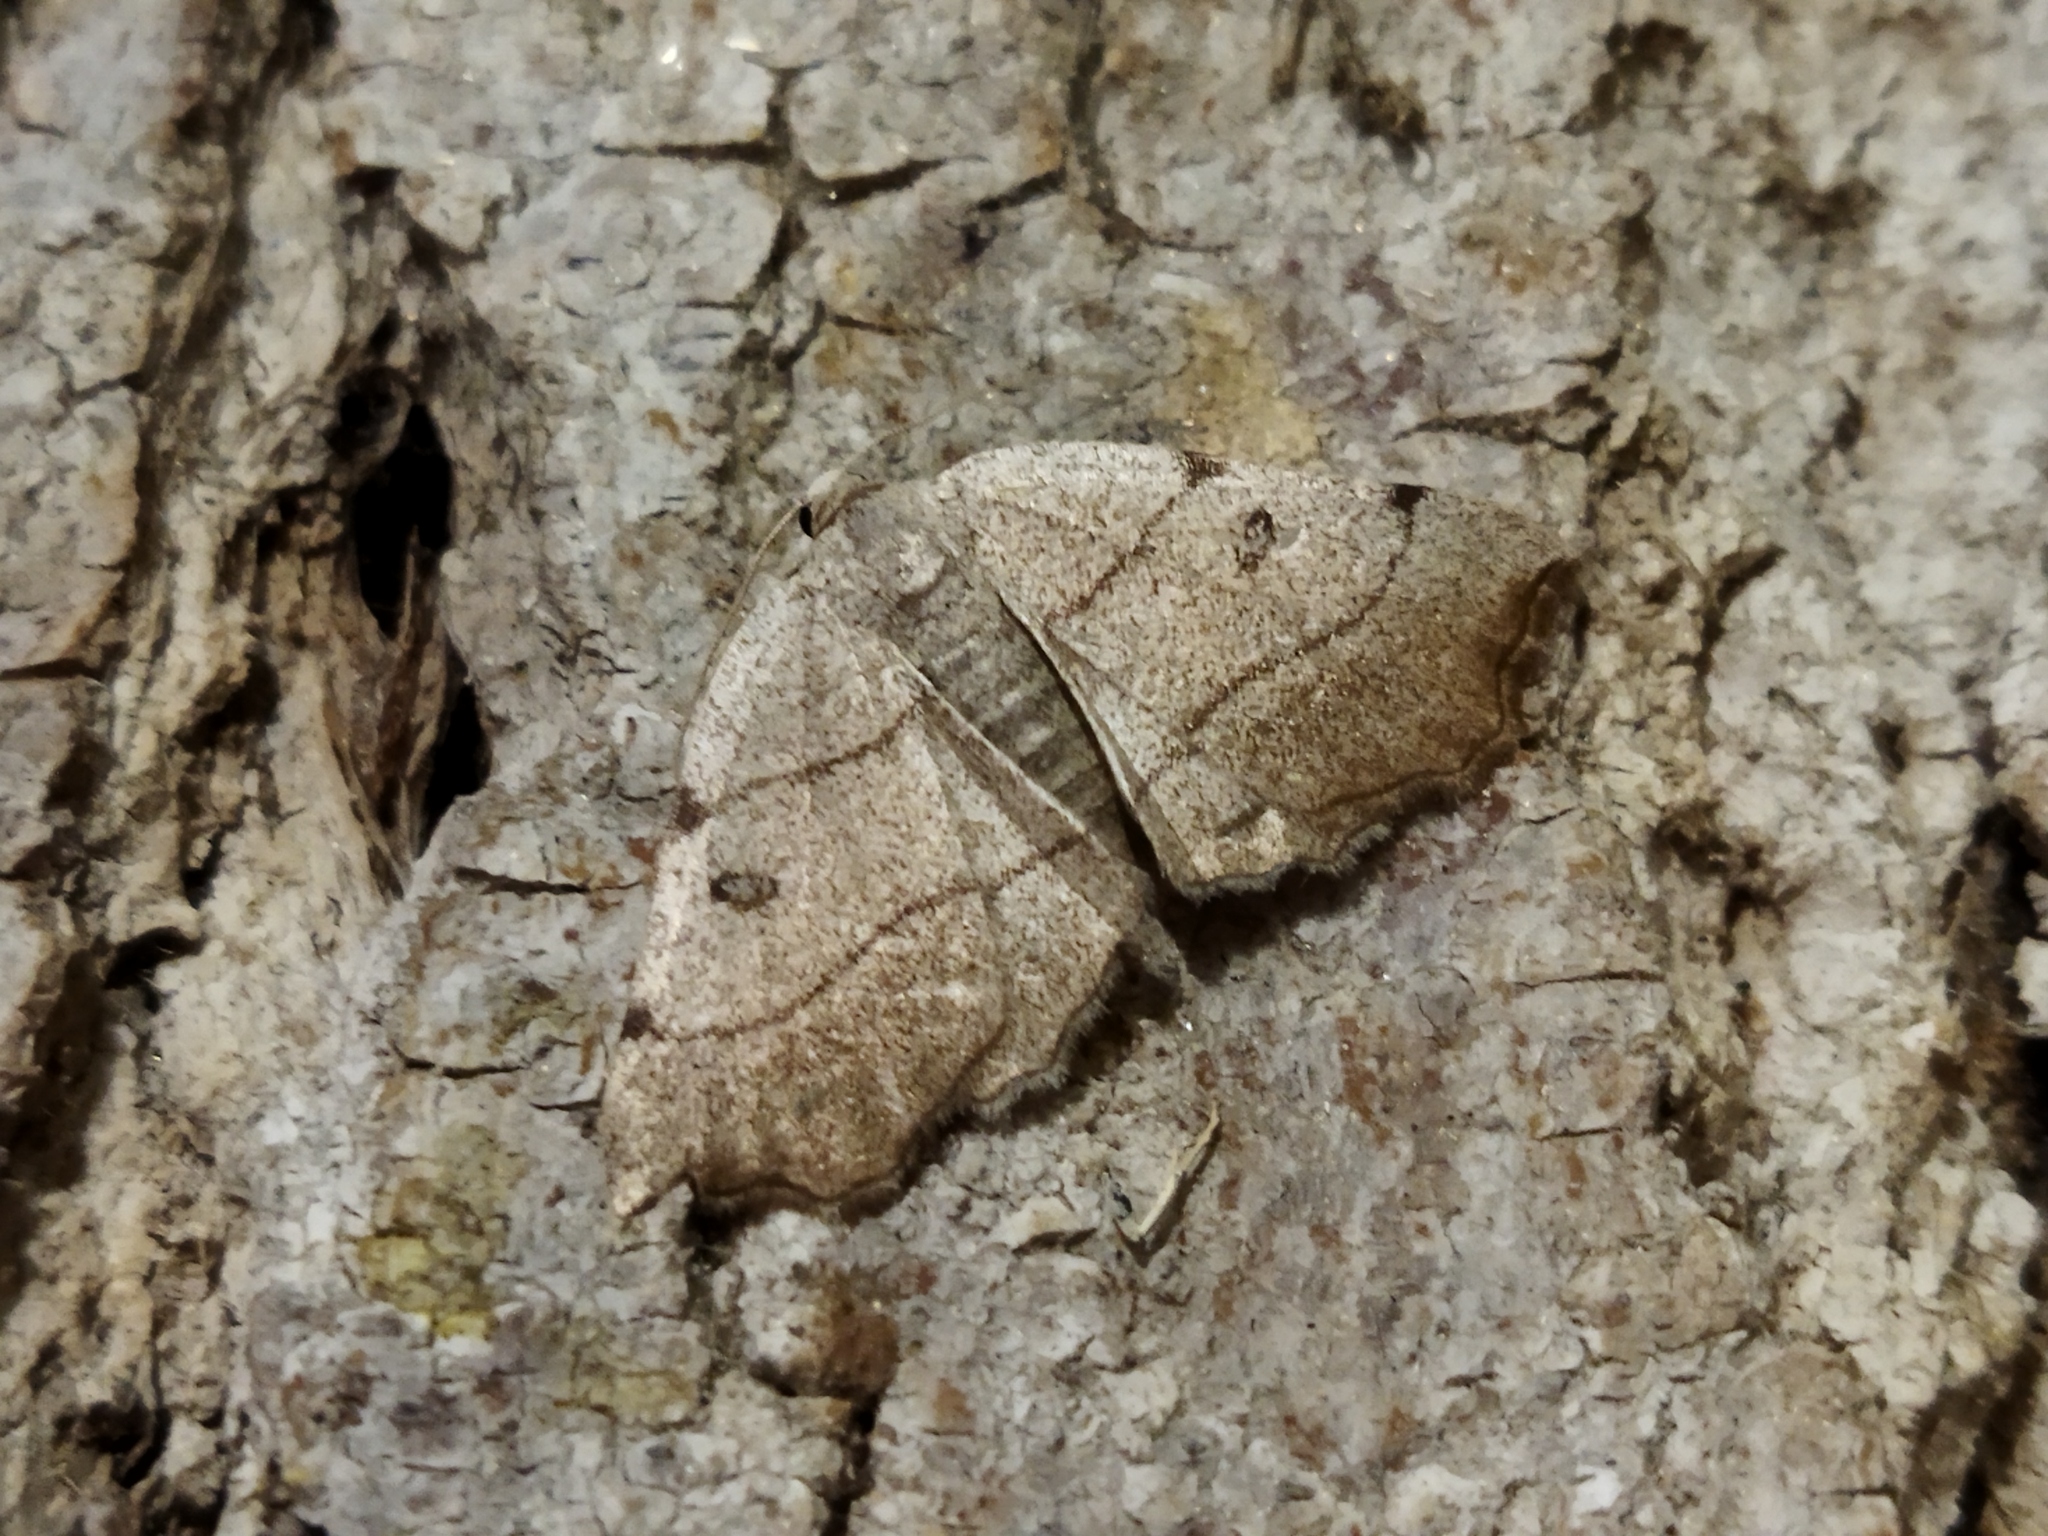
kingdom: Animalia
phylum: Arthropoda
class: Insecta
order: Lepidoptera
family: Geometridae
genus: Eilicrinia
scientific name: Eilicrinia trinotata
